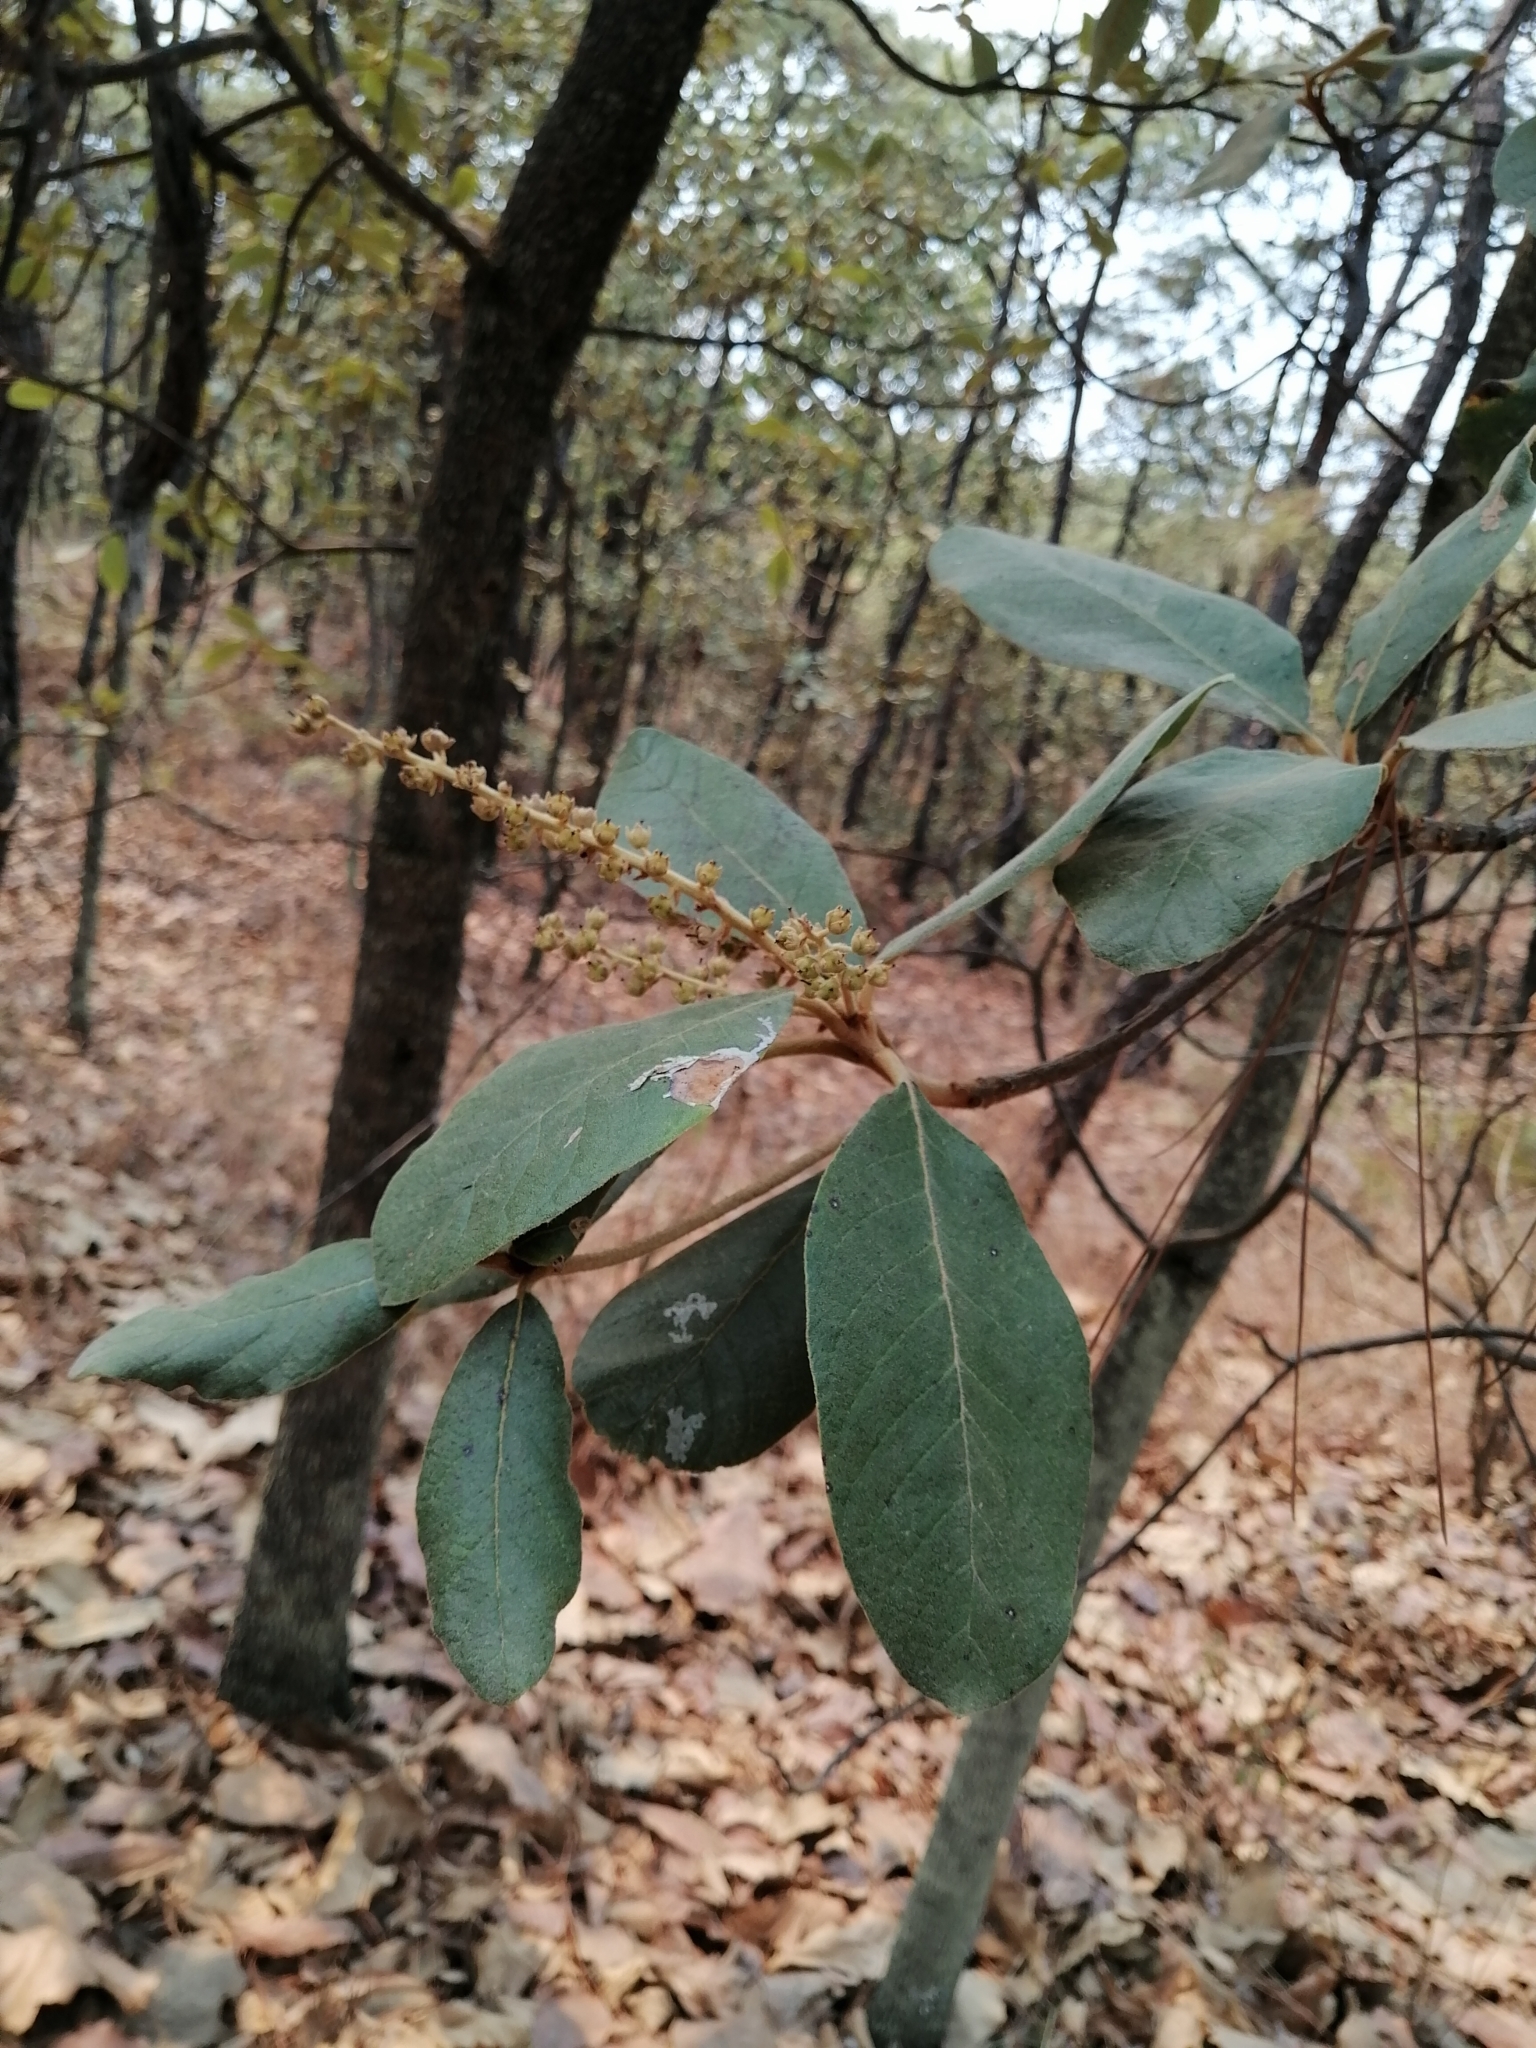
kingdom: Plantae
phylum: Tracheophyta
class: Magnoliopsida
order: Ericales
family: Clethraceae
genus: Clethra
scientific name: Clethra rosei
